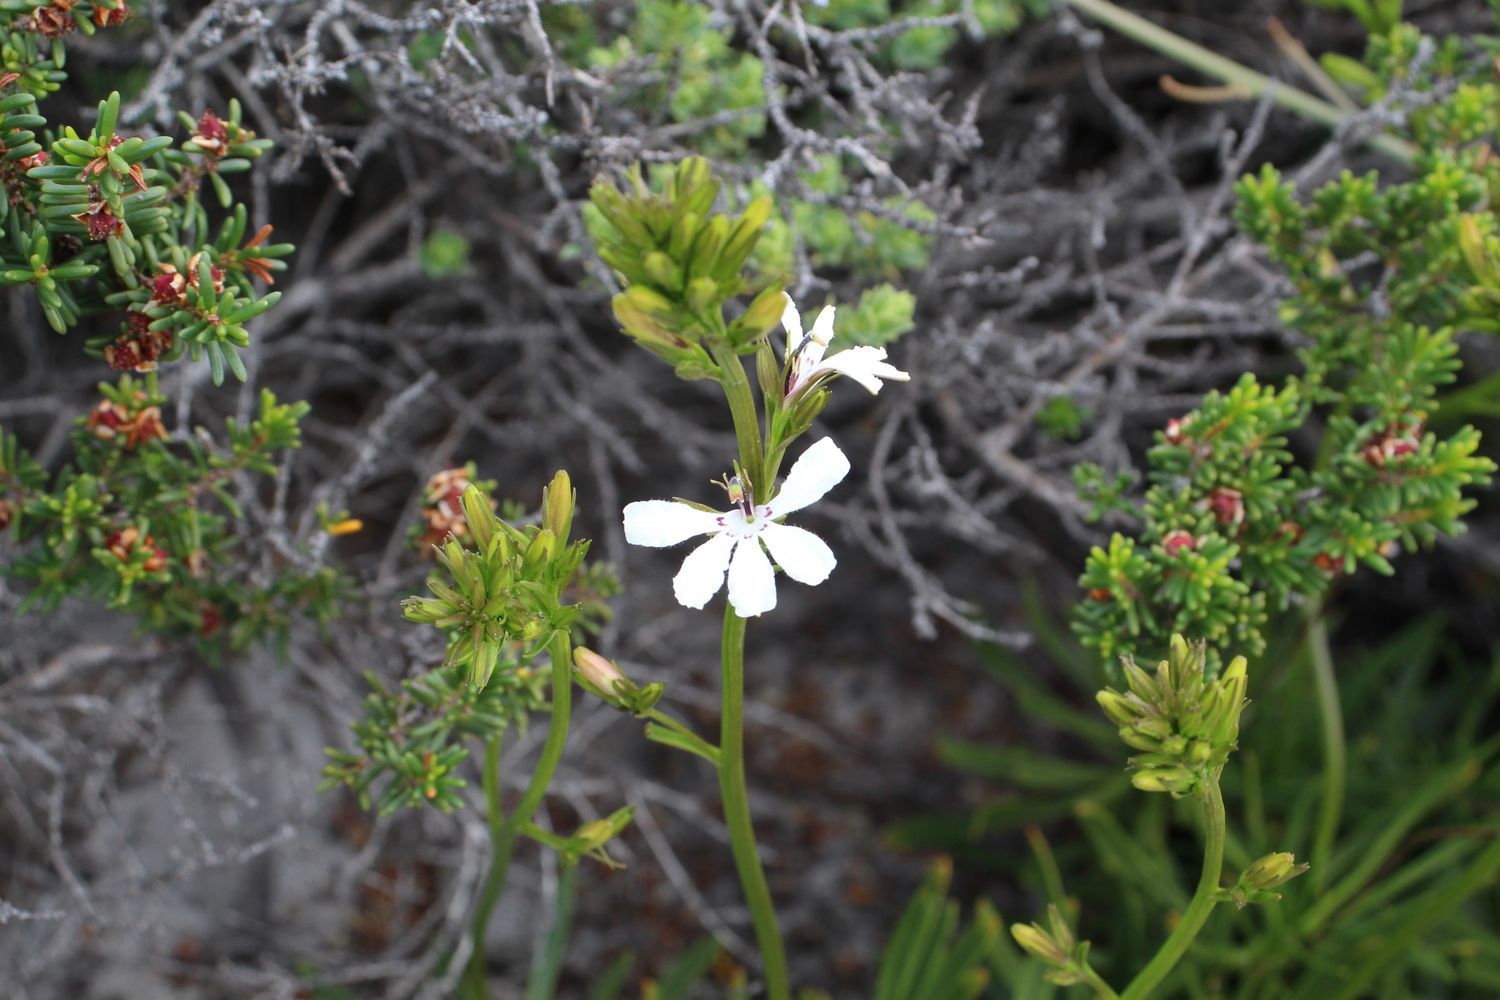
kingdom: Plantae
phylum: Tracheophyta
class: Magnoliopsida
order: Asterales
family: Goodeniaceae
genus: Goodenia
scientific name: Goodenia scapigera
